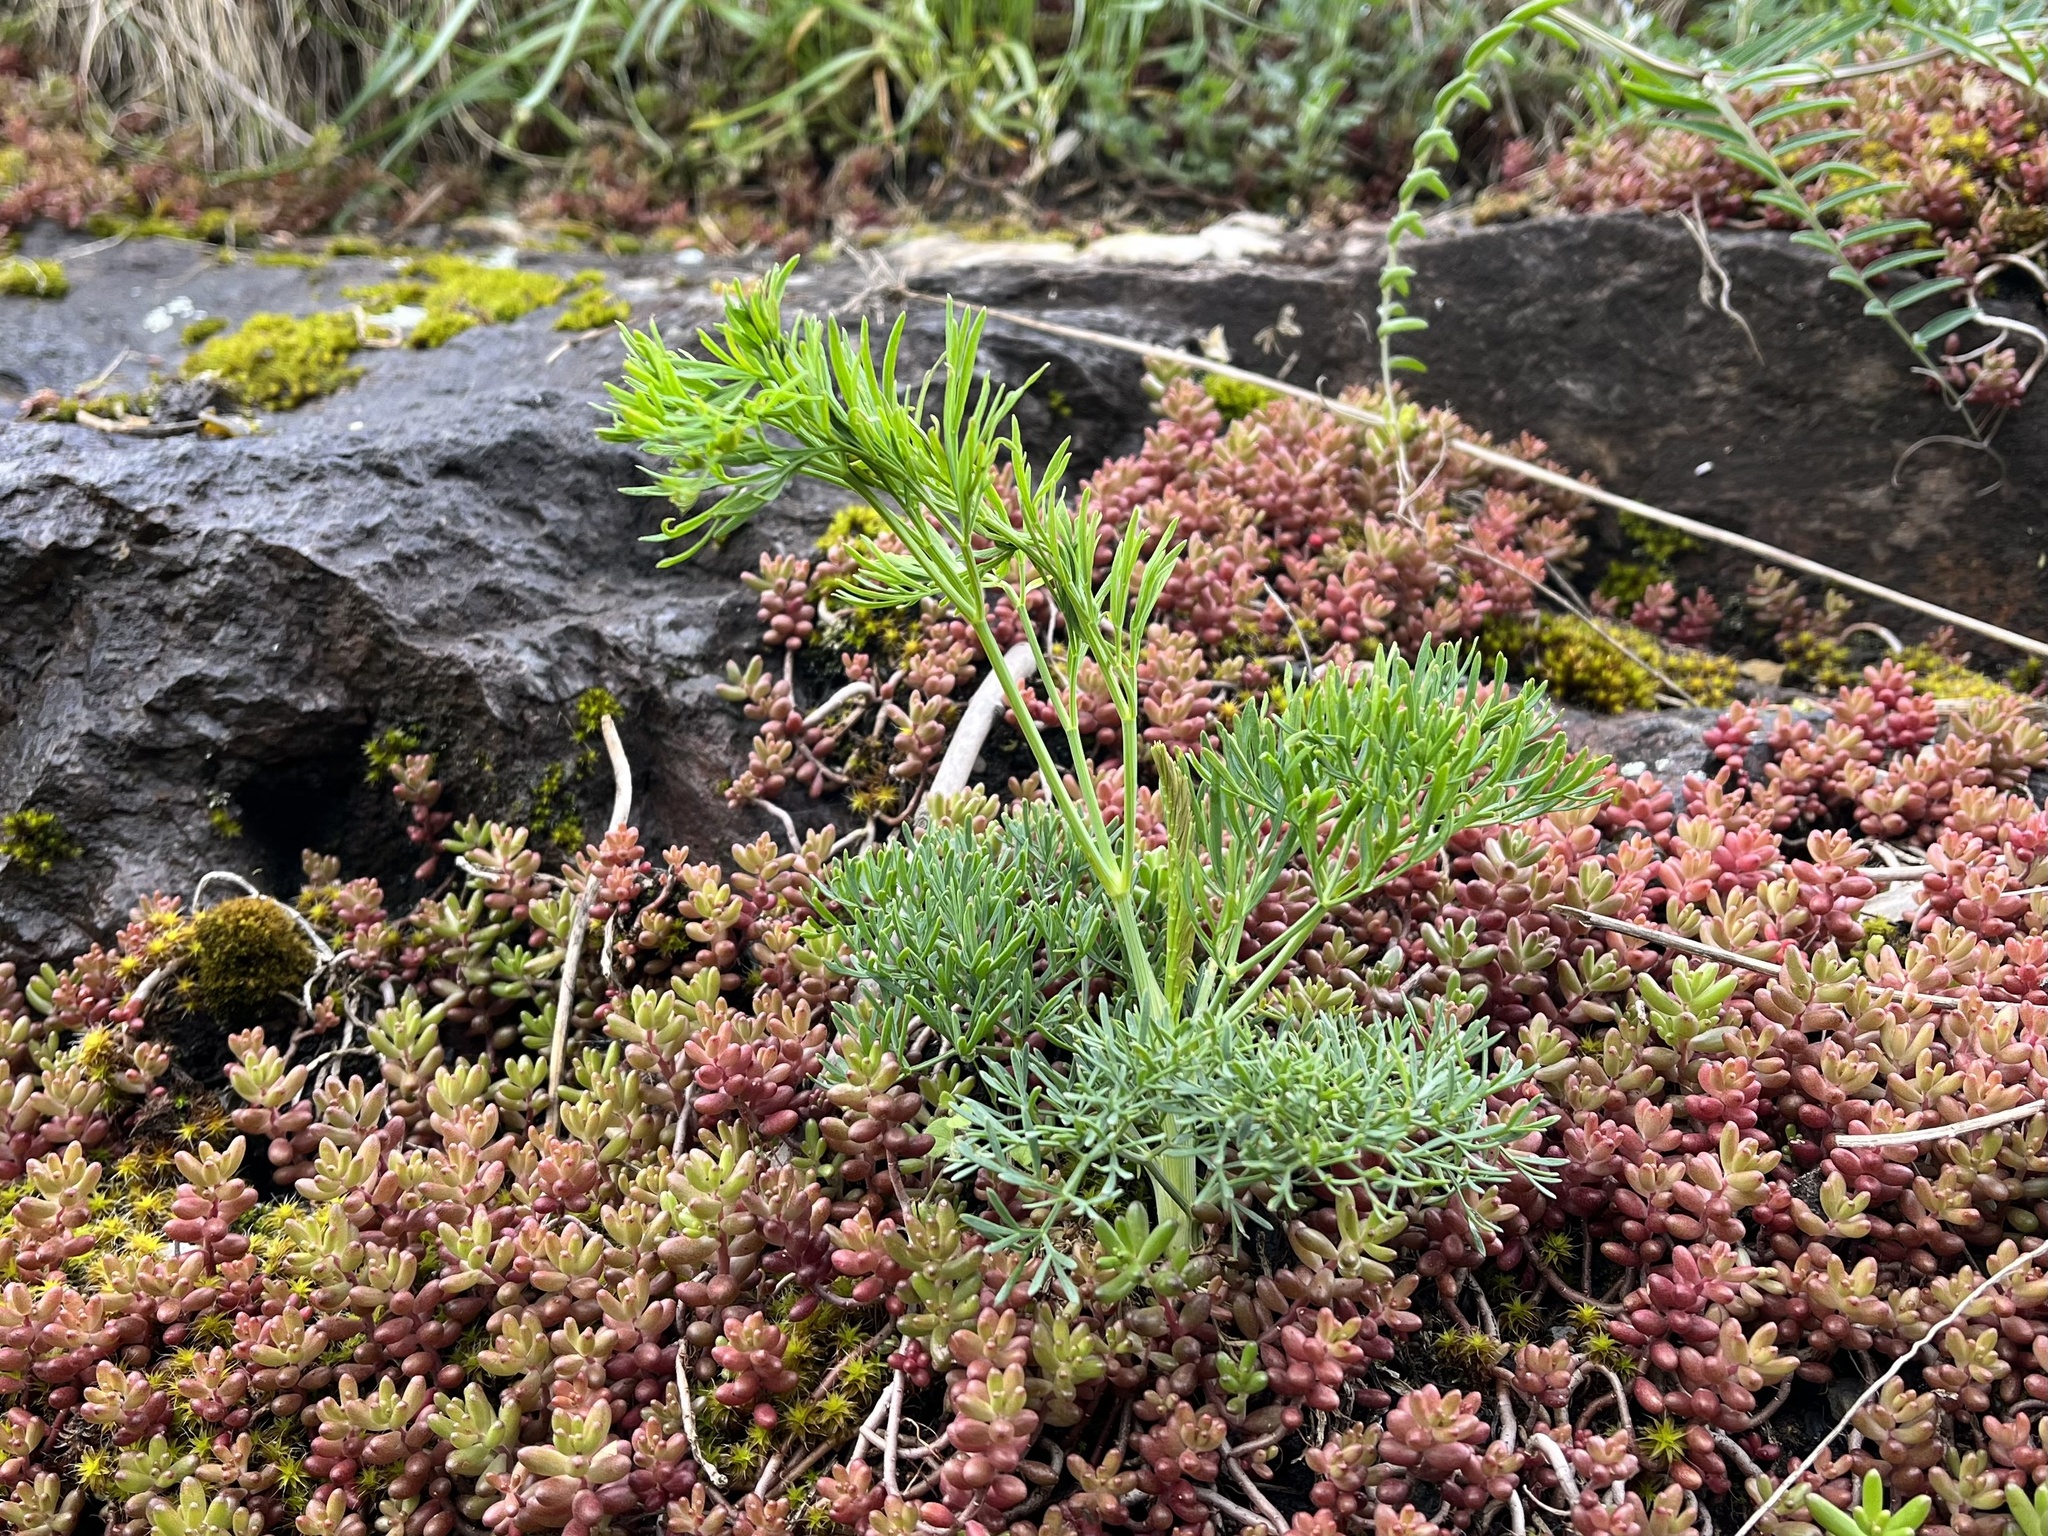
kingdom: Plantae
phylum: Tracheophyta
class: Magnoliopsida
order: Apiales
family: Apiaceae
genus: Seseli
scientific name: Seseli osseum
